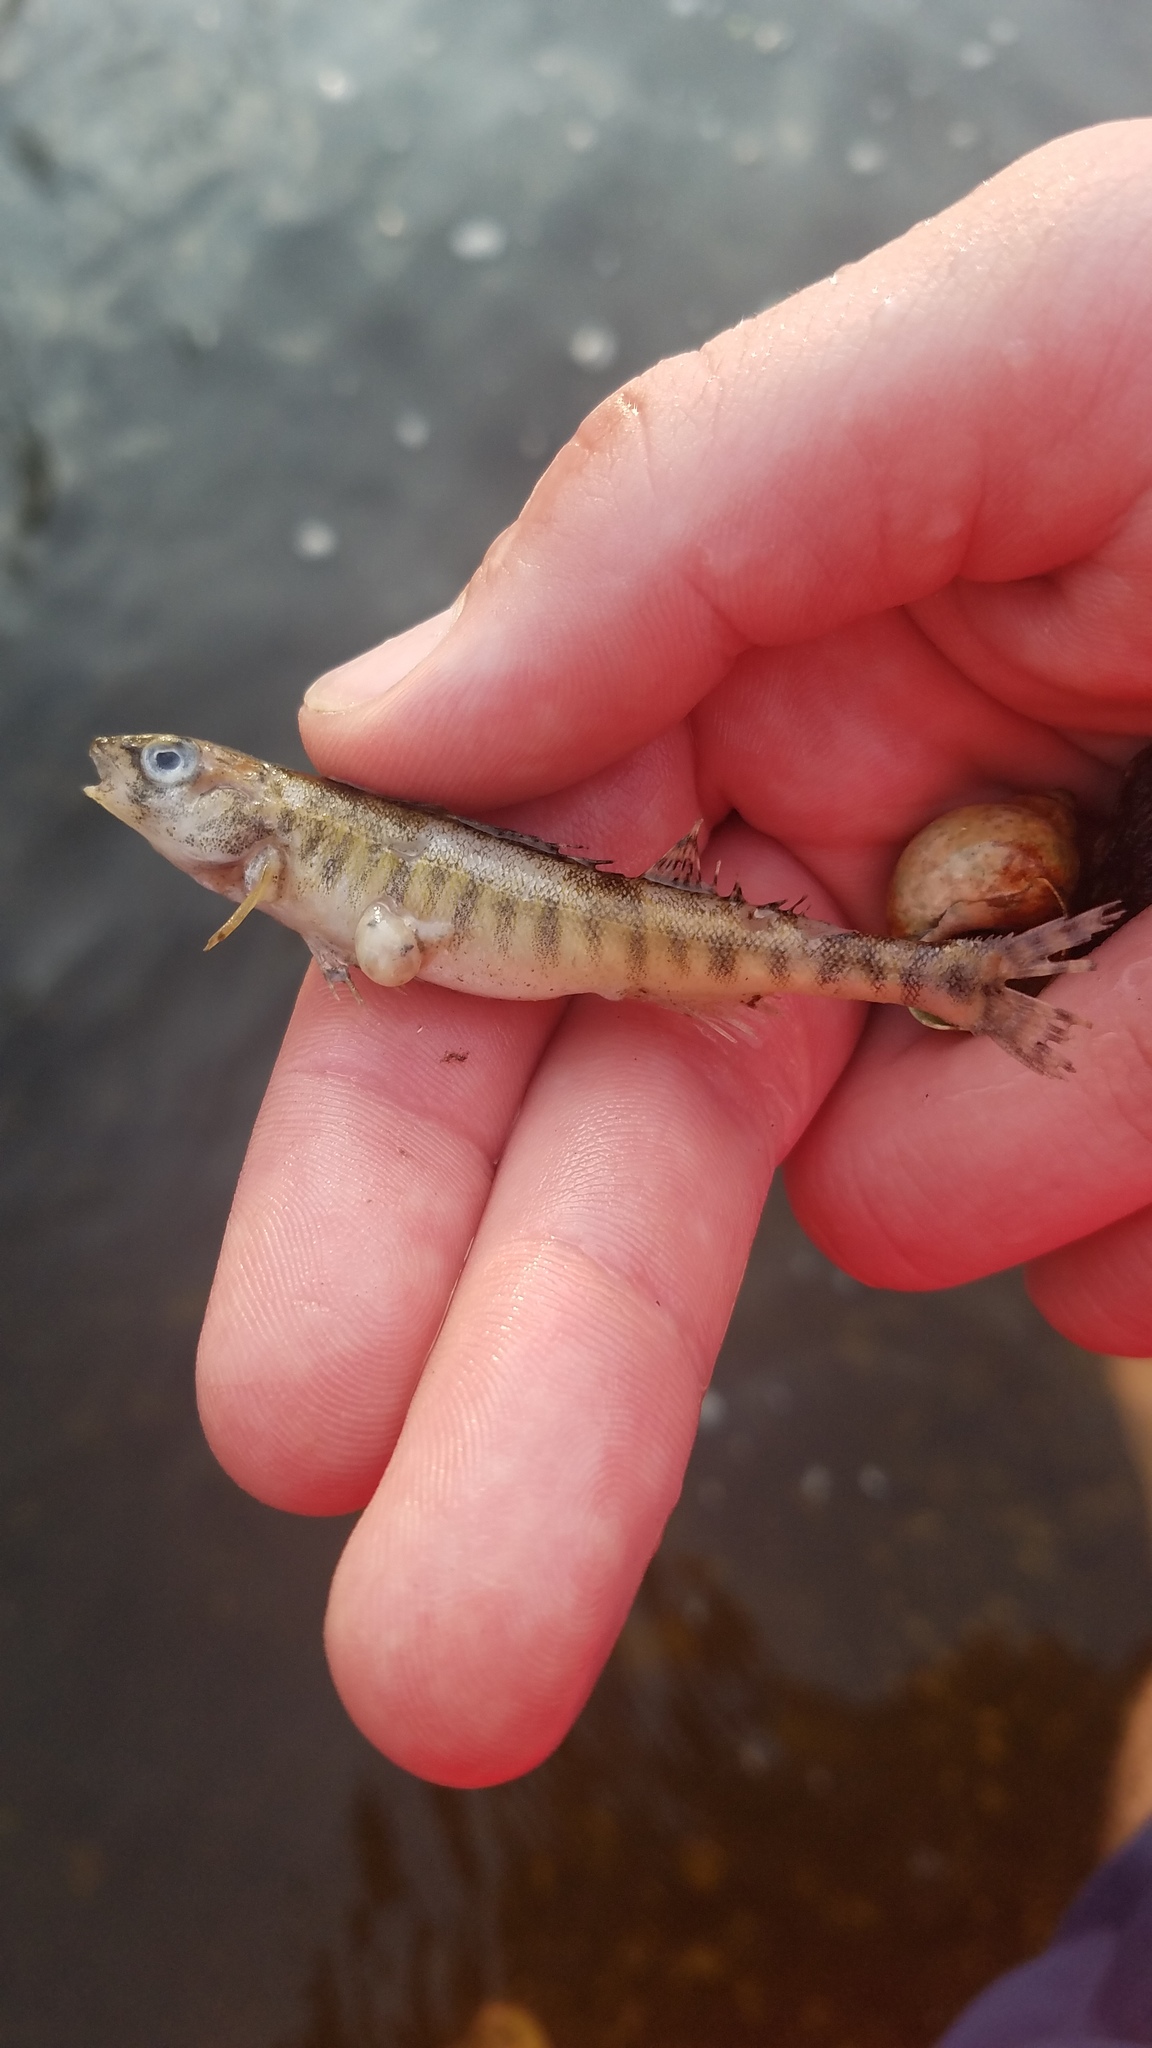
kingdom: Animalia
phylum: Chordata
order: Perciformes
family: Percidae
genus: Percina
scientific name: Percina caprodes
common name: Logperch
